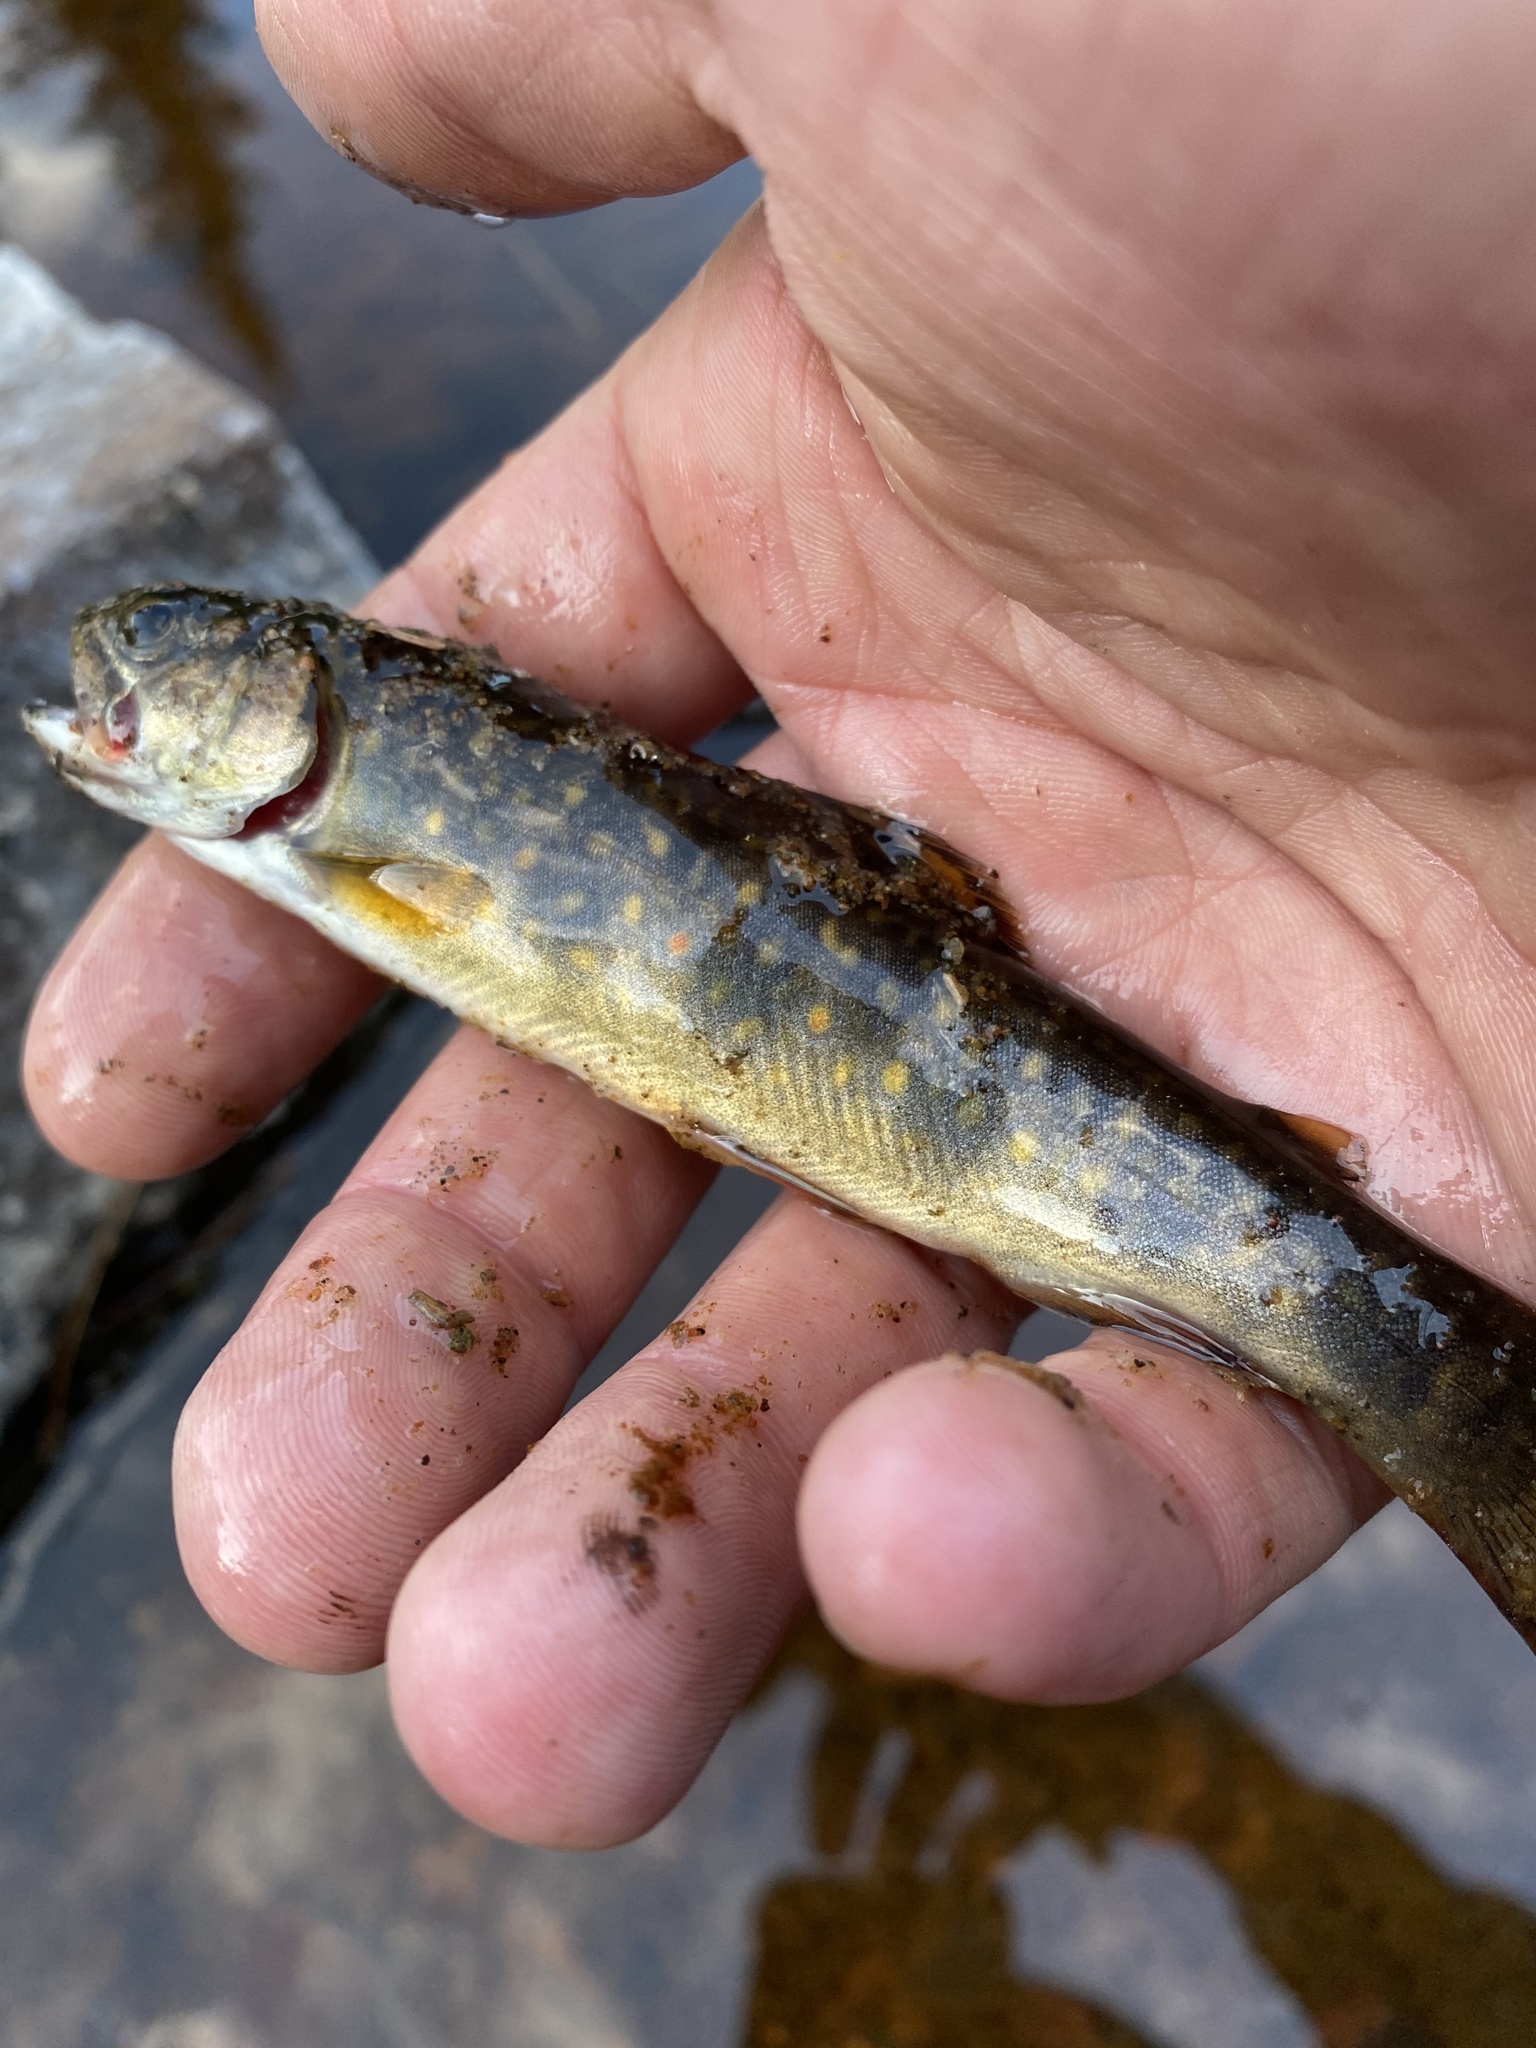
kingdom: Animalia
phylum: Chordata
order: Salmoniformes
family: Salmonidae
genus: Salvelinus
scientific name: Salvelinus fontinalis
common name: Brook trout
